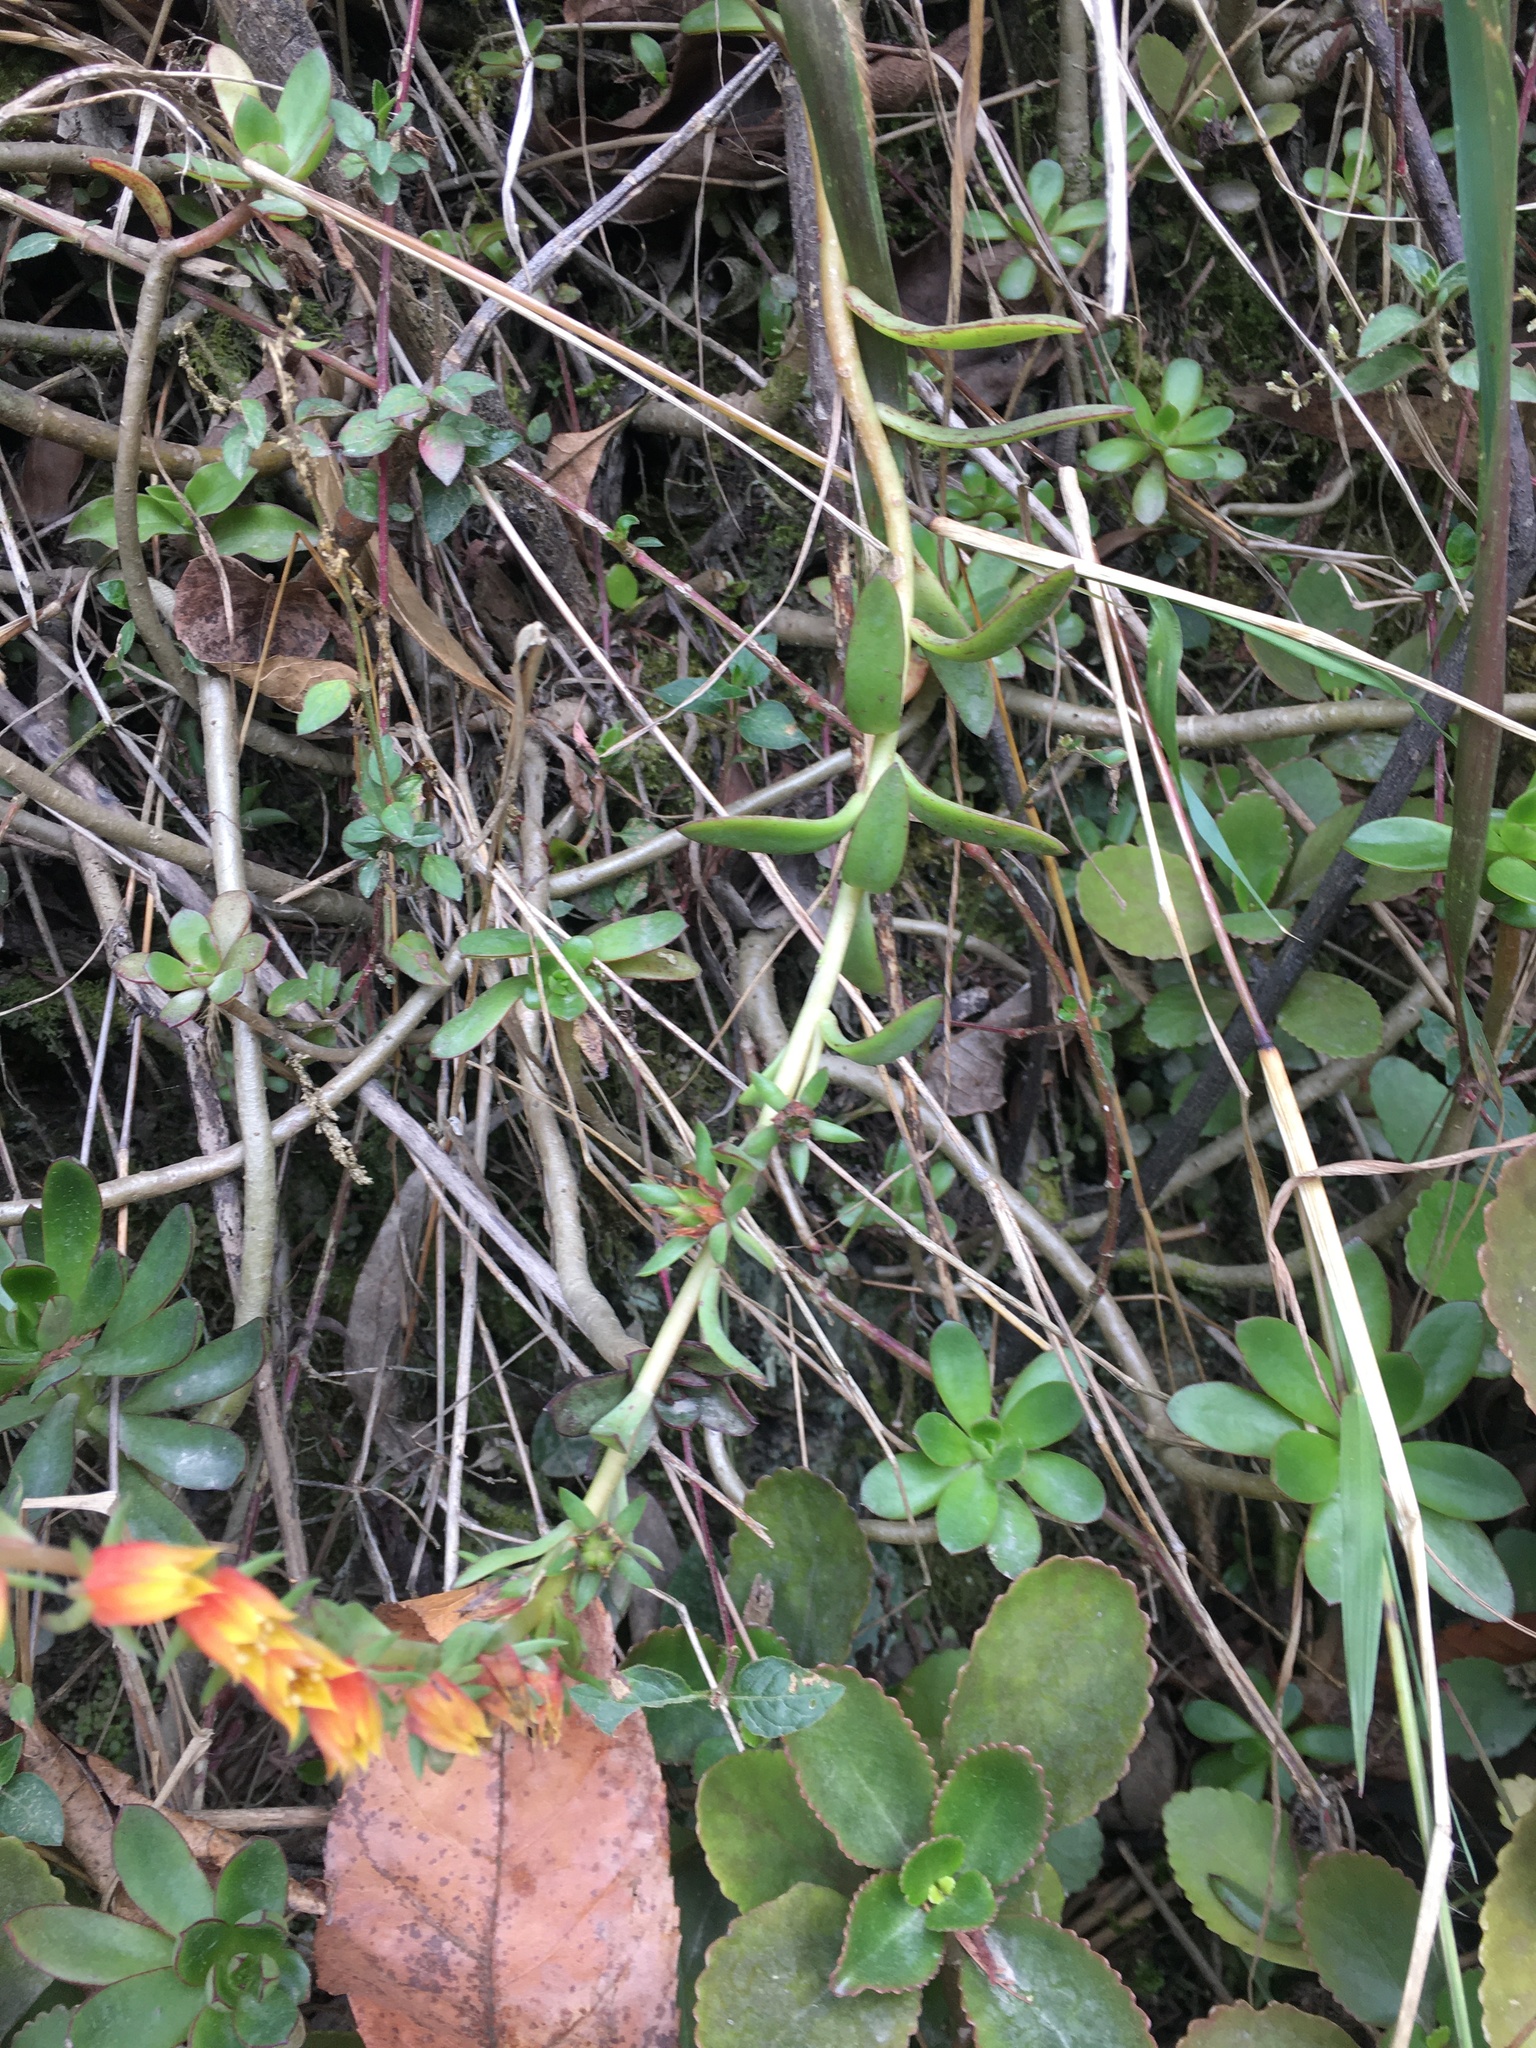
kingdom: Plantae
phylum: Tracheophyta
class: Magnoliopsida
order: Saxifragales
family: Crassulaceae
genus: Echeveria
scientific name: Echeveria bicolor
